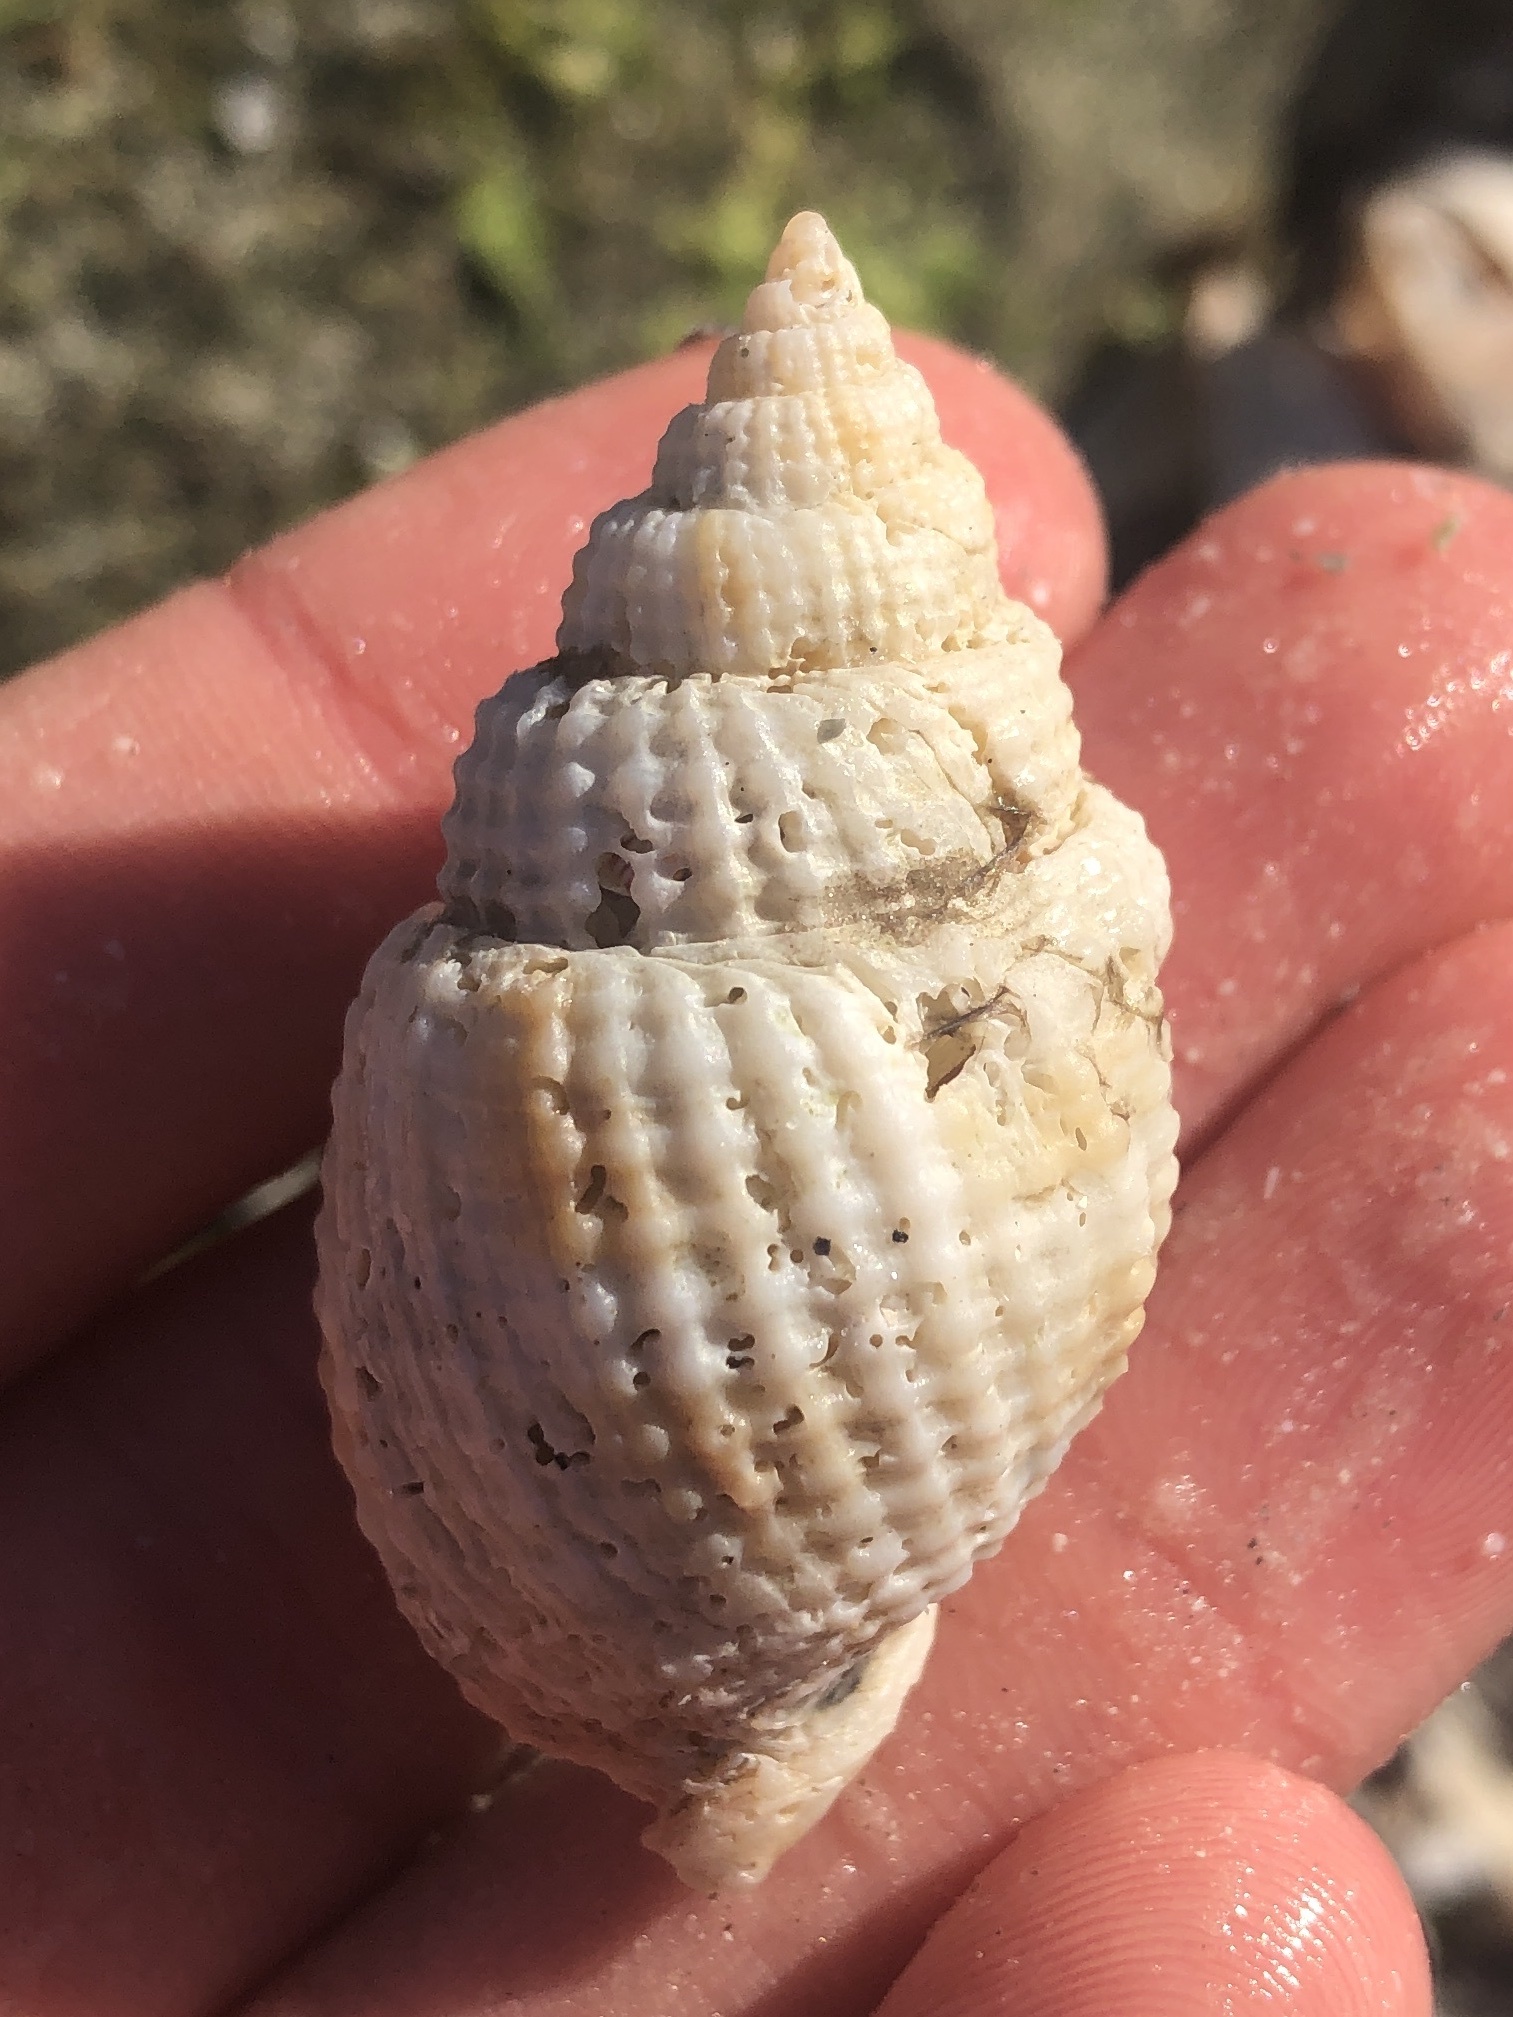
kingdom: Animalia
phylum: Mollusca
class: Gastropoda
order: Neogastropoda
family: Cancellariidae
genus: Cancellaria
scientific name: Cancellaria reticulata
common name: Common nutmeg
